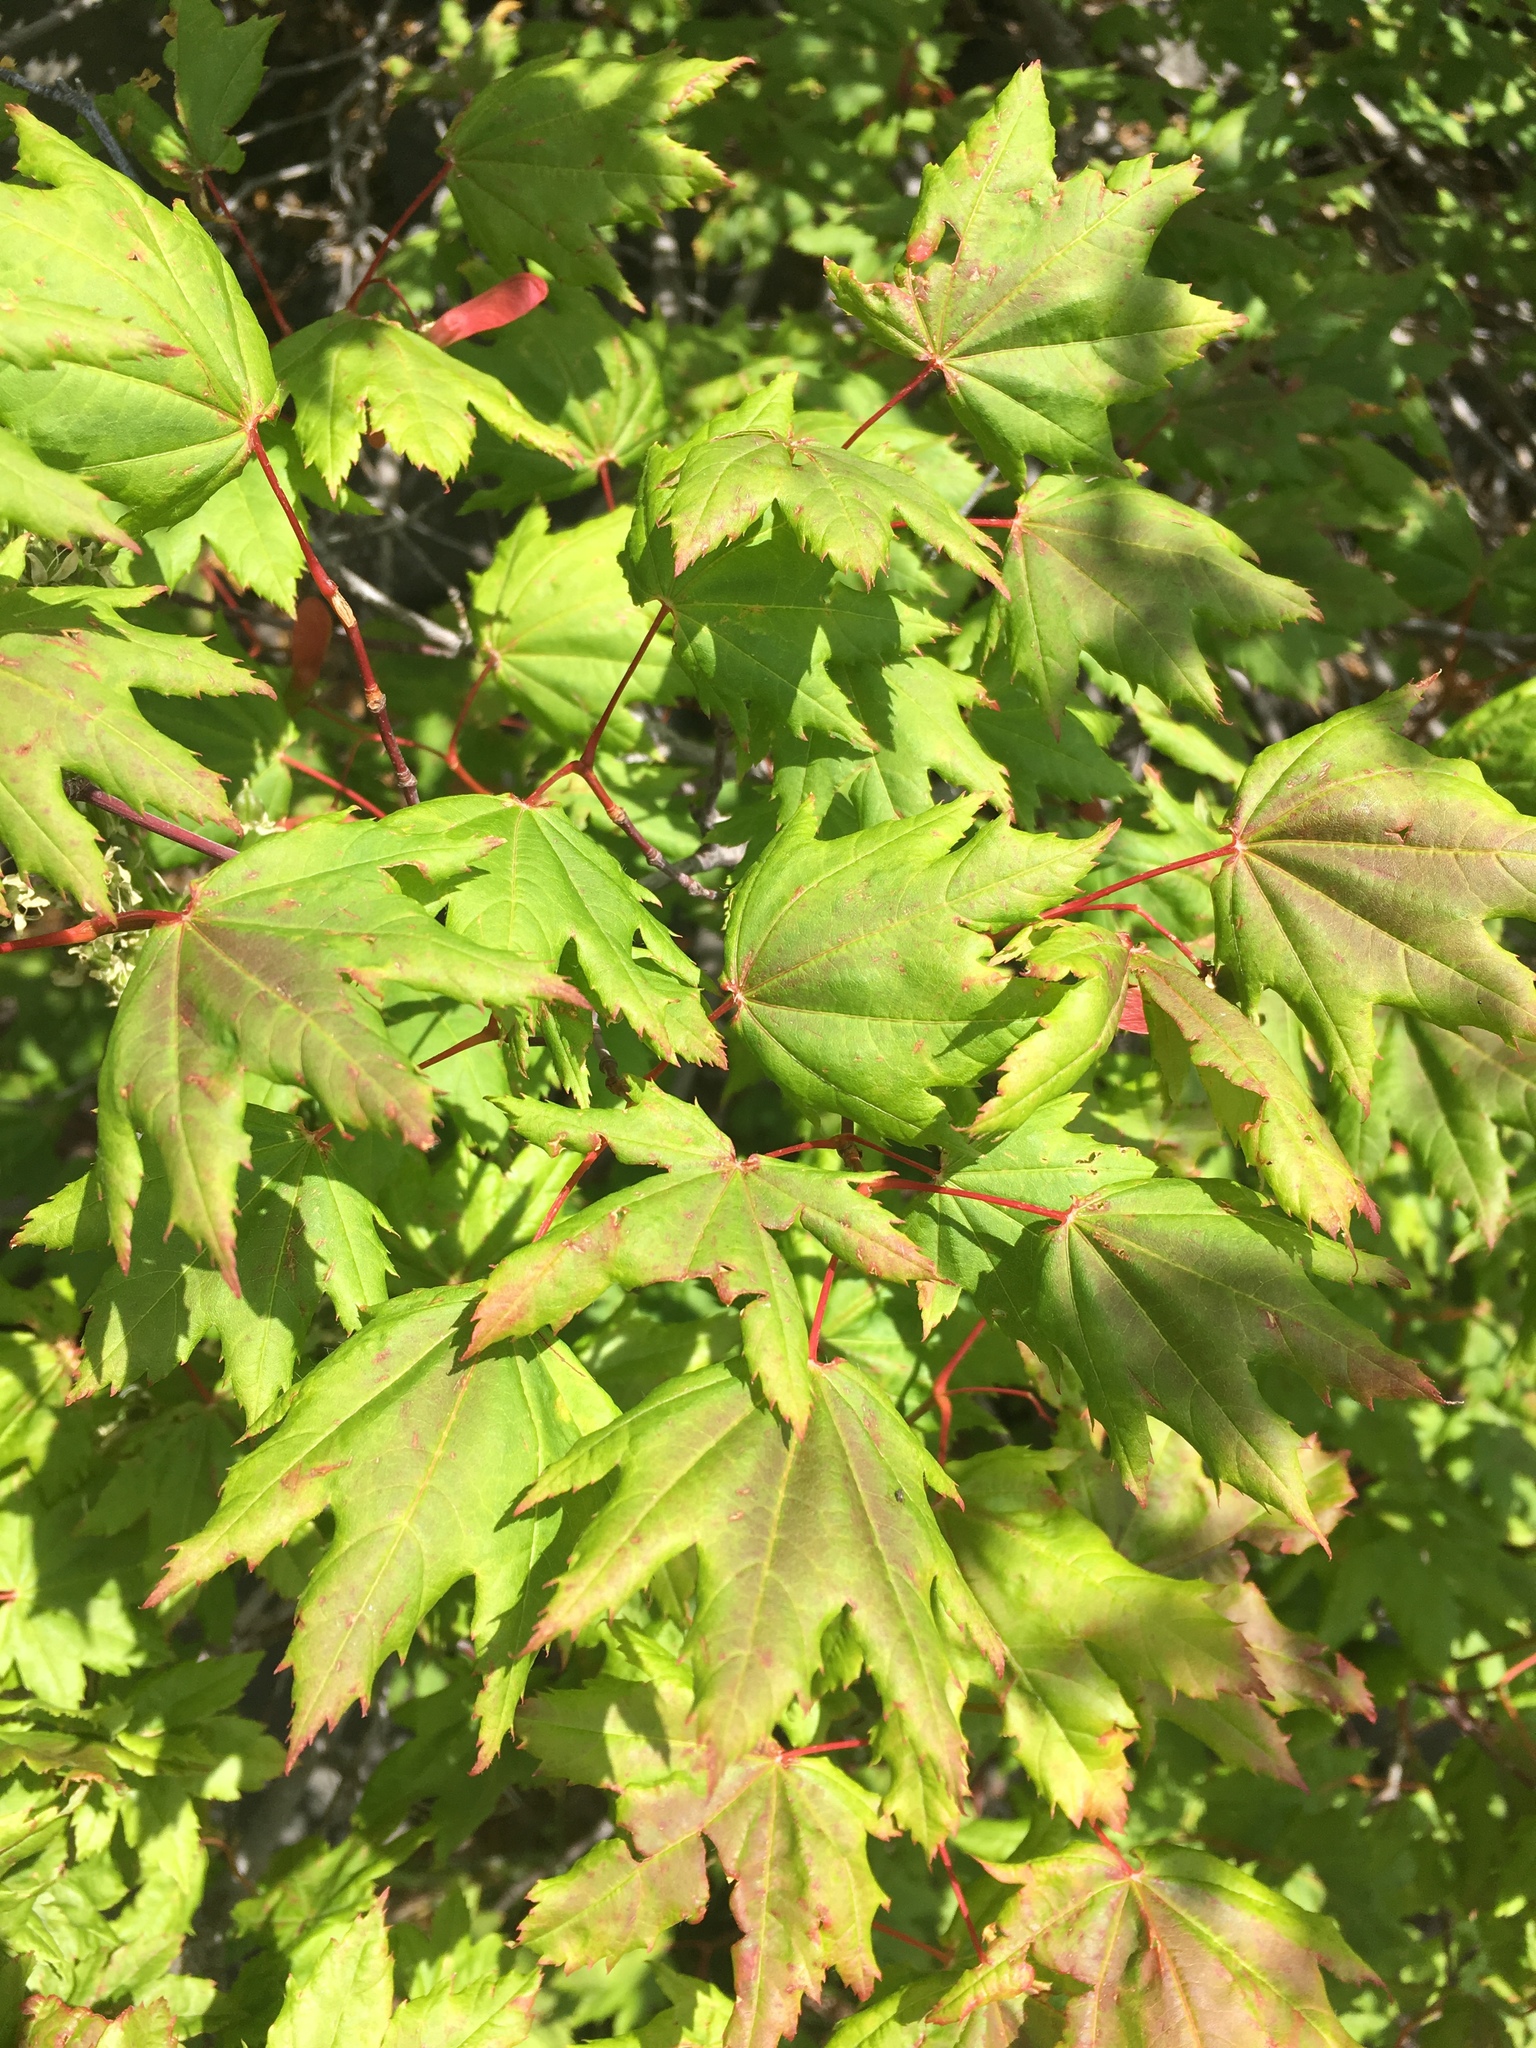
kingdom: Plantae
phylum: Tracheophyta
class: Magnoliopsida
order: Sapindales
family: Sapindaceae
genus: Acer
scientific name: Acer circinatum
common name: Vine maple
